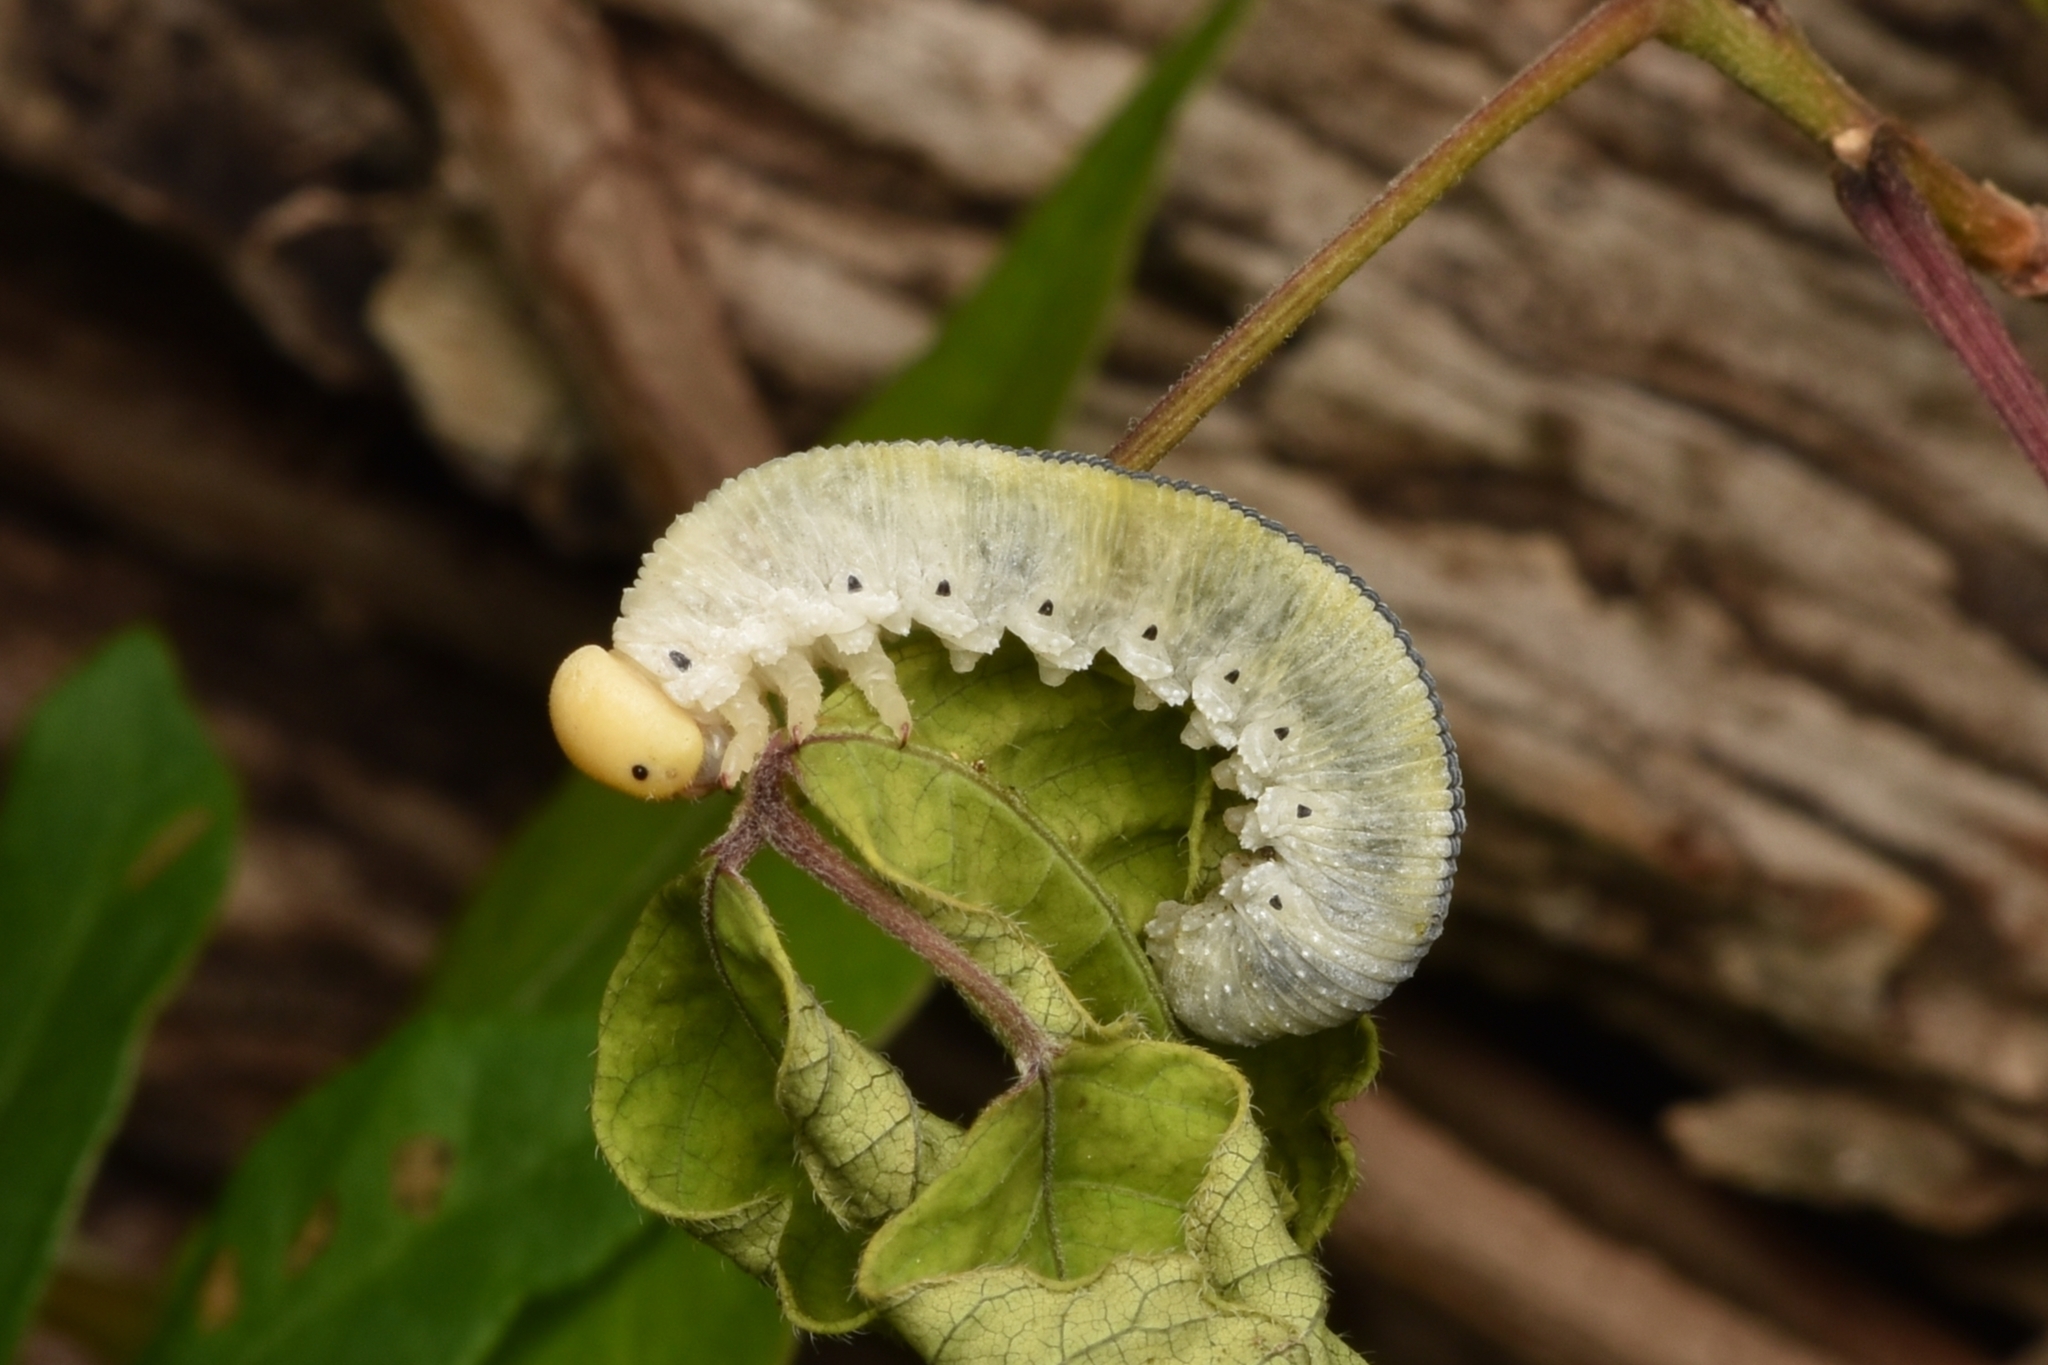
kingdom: Animalia
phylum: Arthropoda
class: Insecta
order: Hymenoptera
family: Cimbicidae
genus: Cimbex
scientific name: Cimbex americana
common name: Elm sawfly
